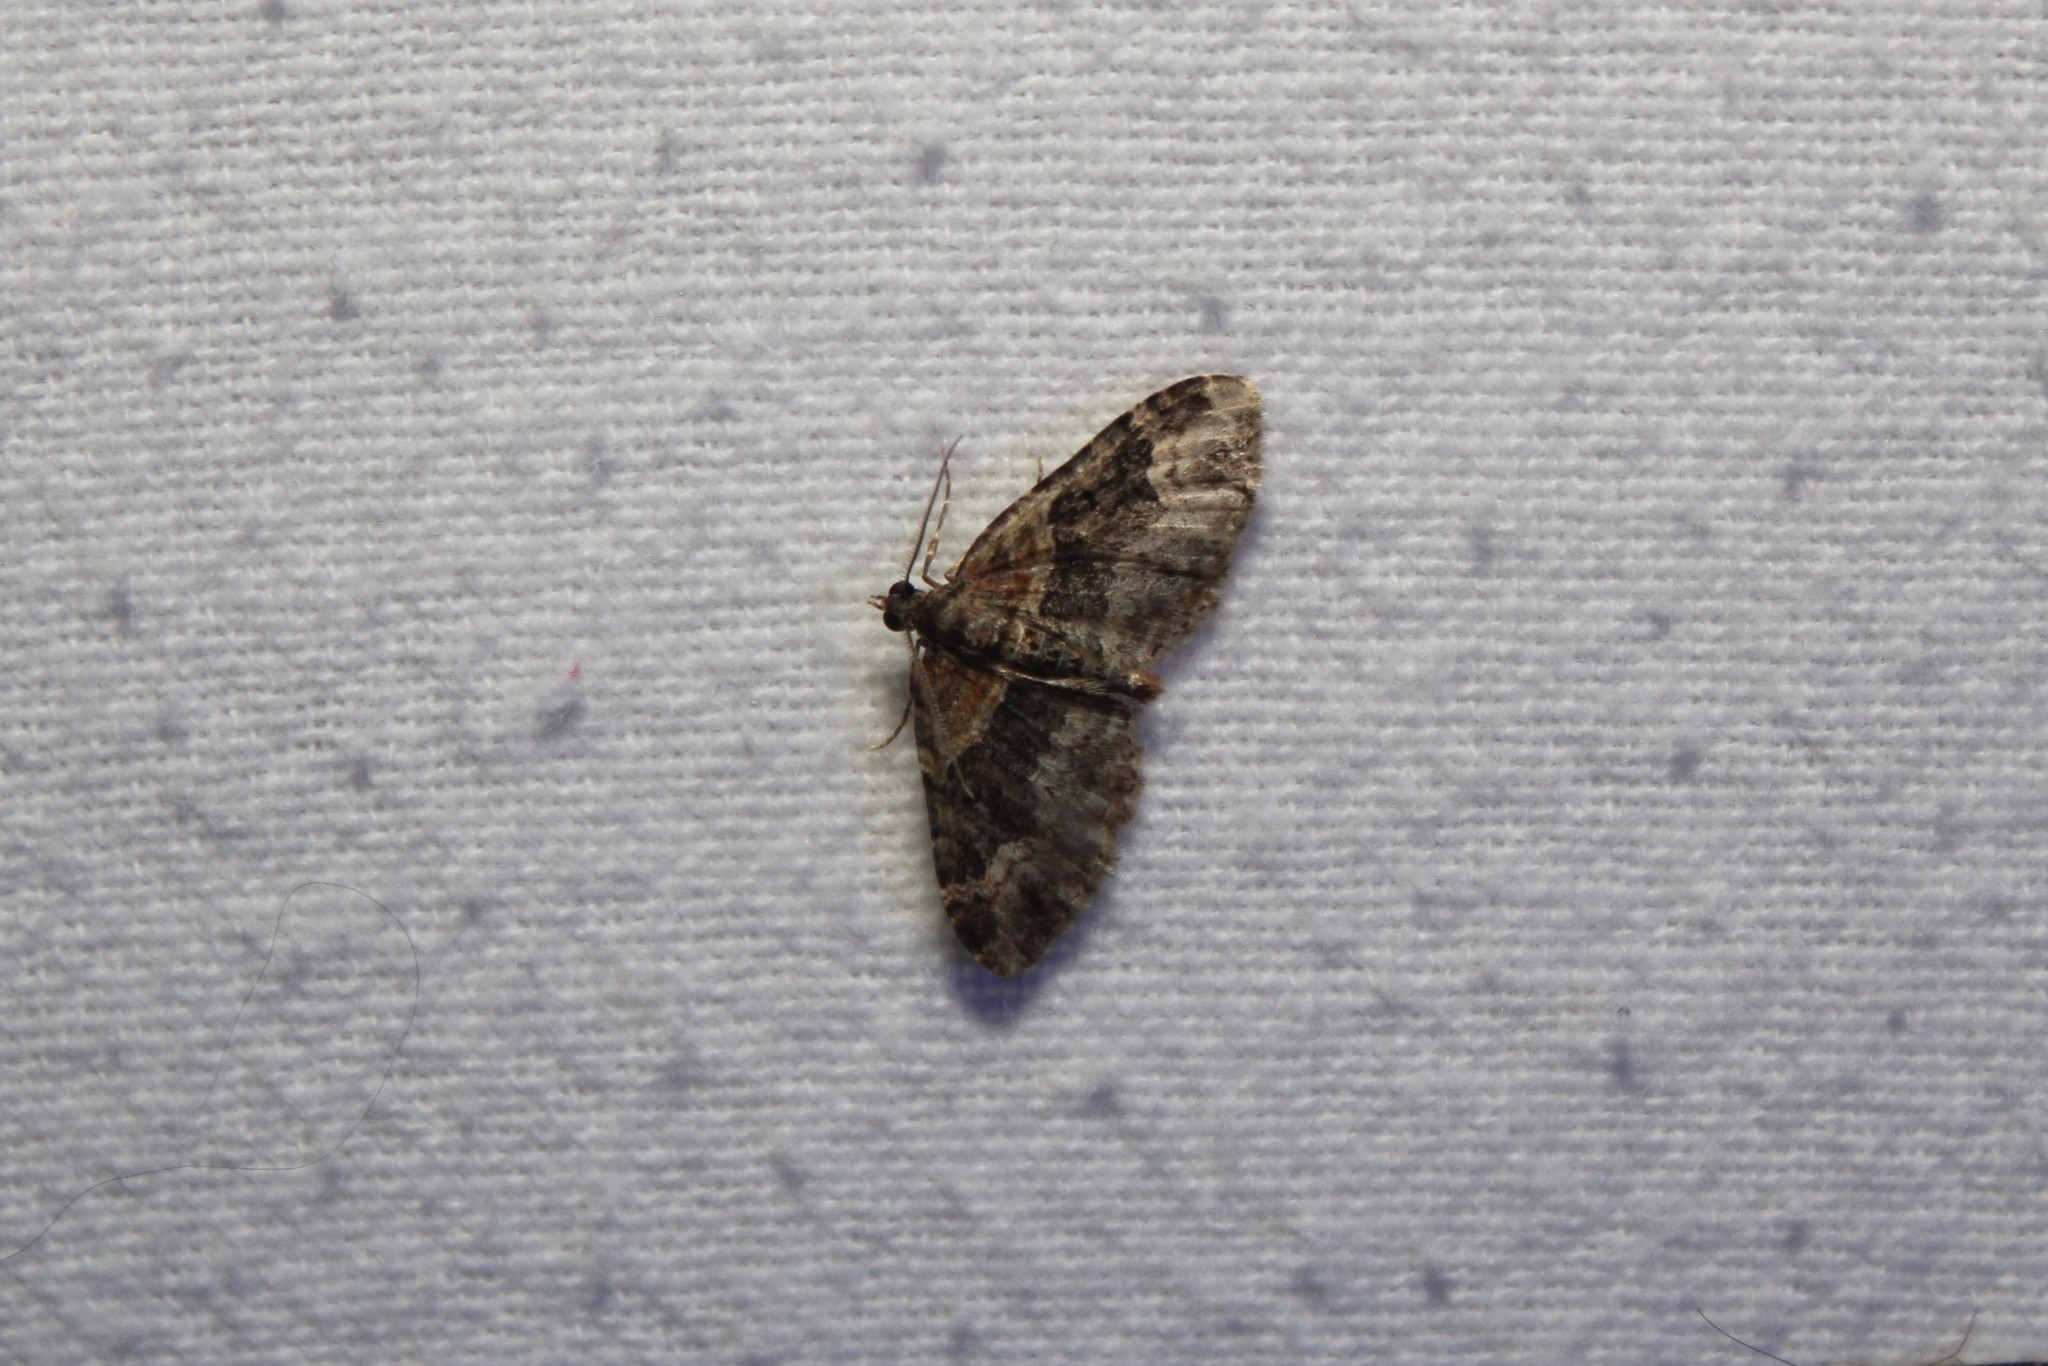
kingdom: Animalia
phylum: Arthropoda
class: Insecta
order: Lepidoptera
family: Geometridae
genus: Xanthorhoe
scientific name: Xanthorhoe ferrugata
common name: Dark-barred twin-spot carpet
